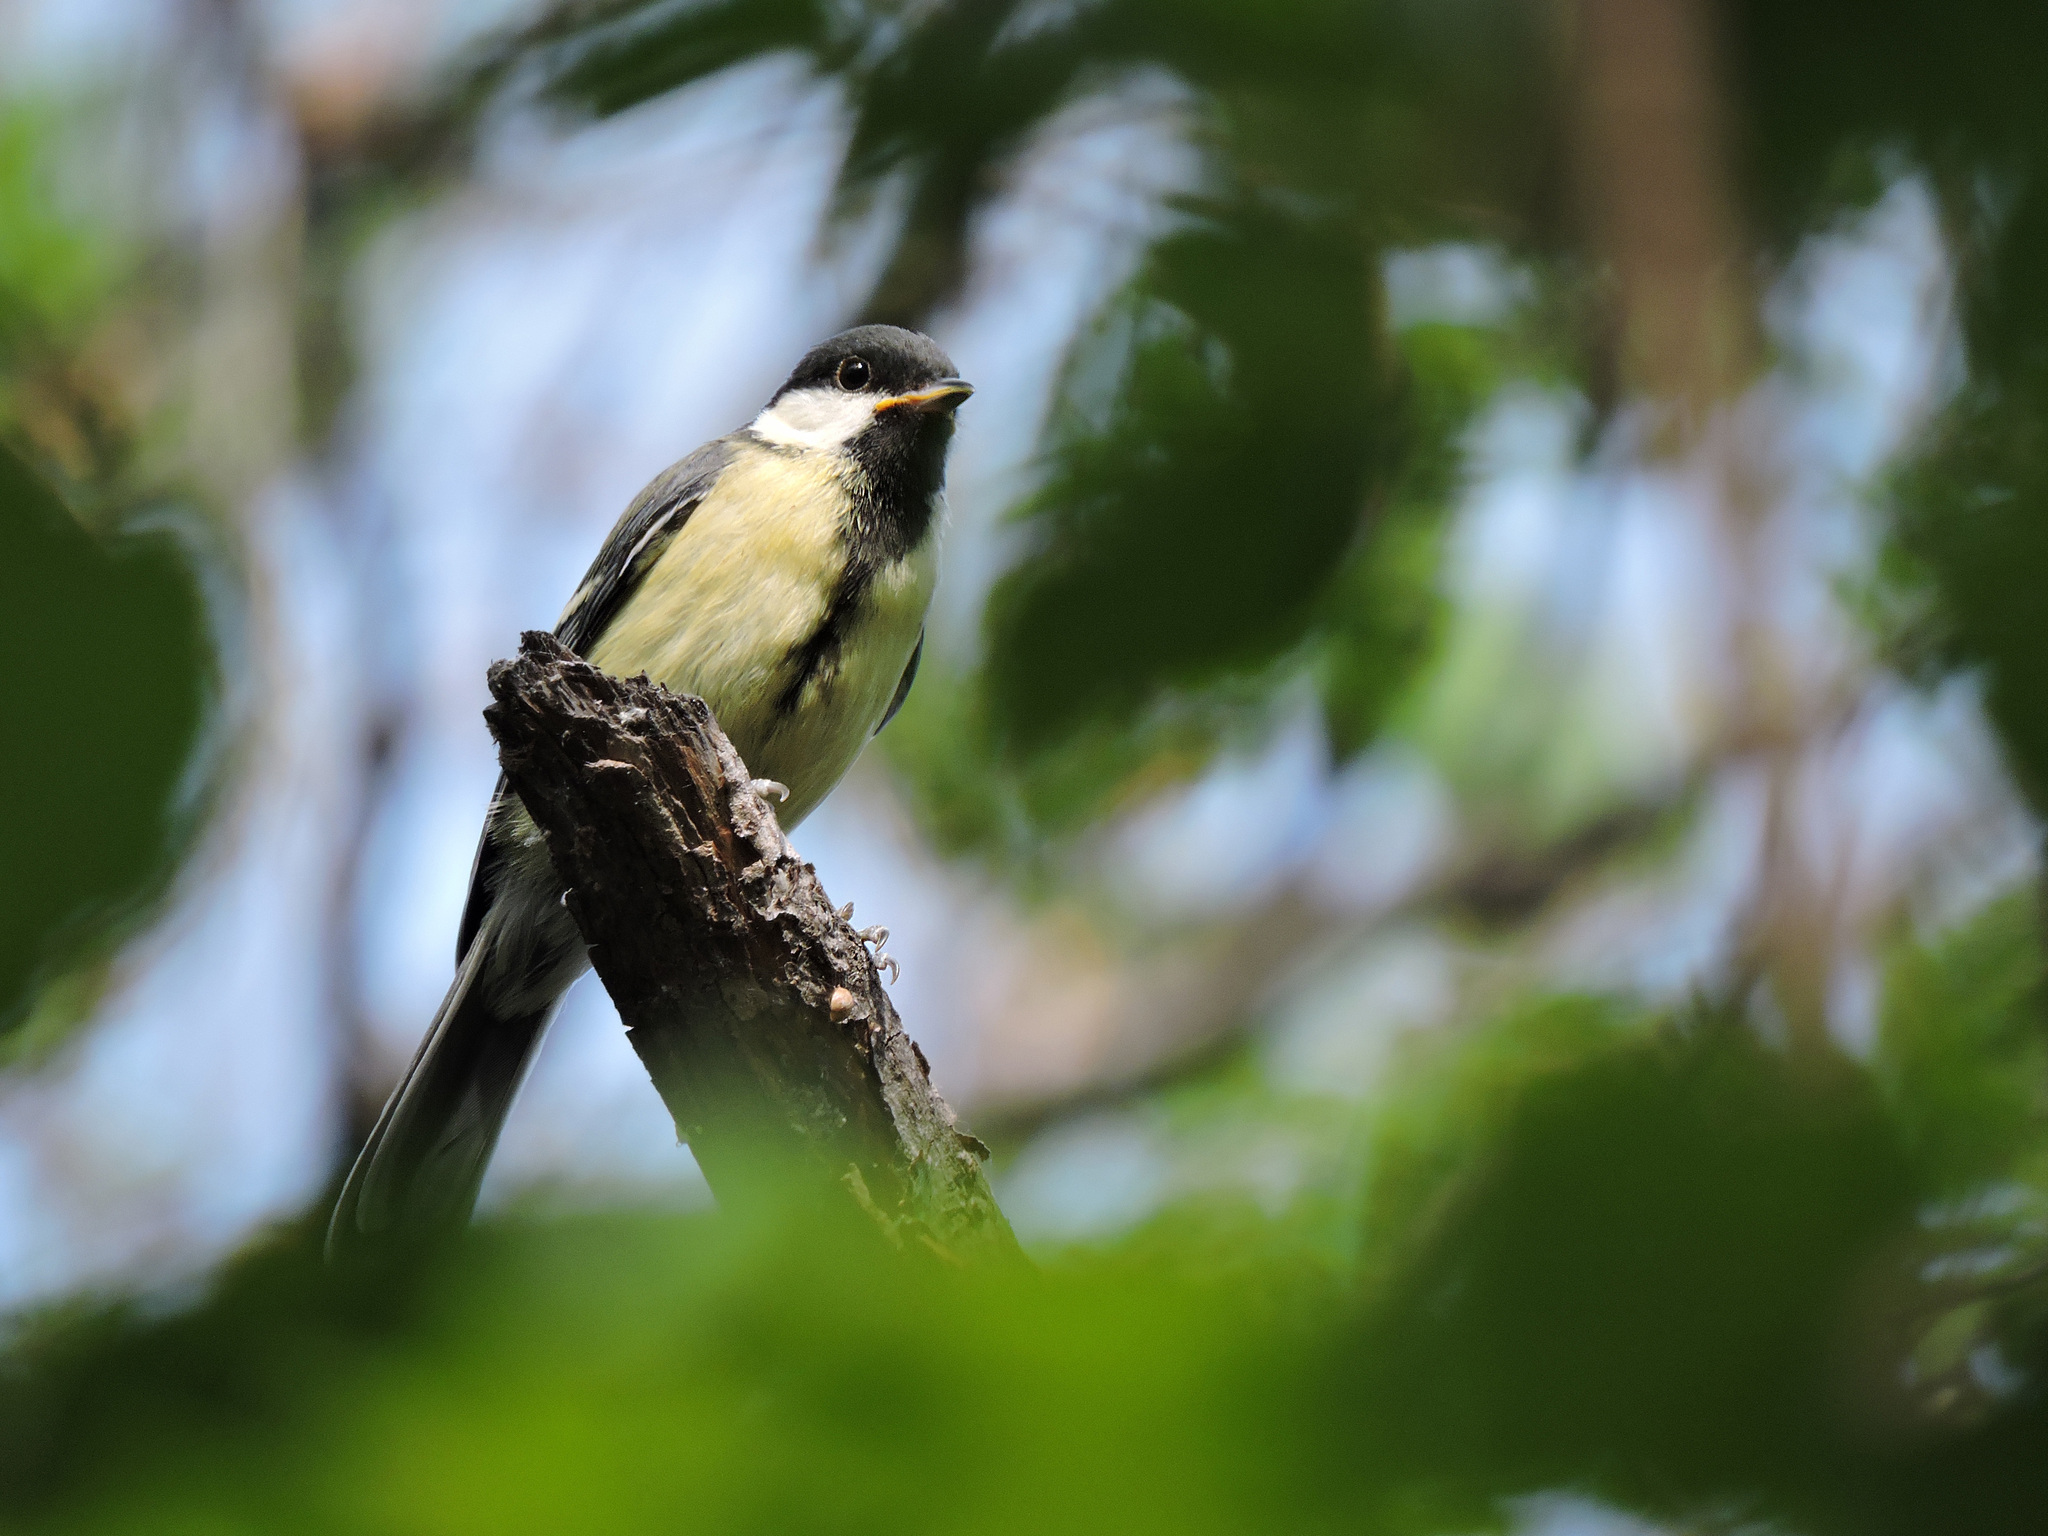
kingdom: Animalia
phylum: Chordata
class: Aves
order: Passeriformes
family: Paridae
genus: Parus
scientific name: Parus major
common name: Great tit
